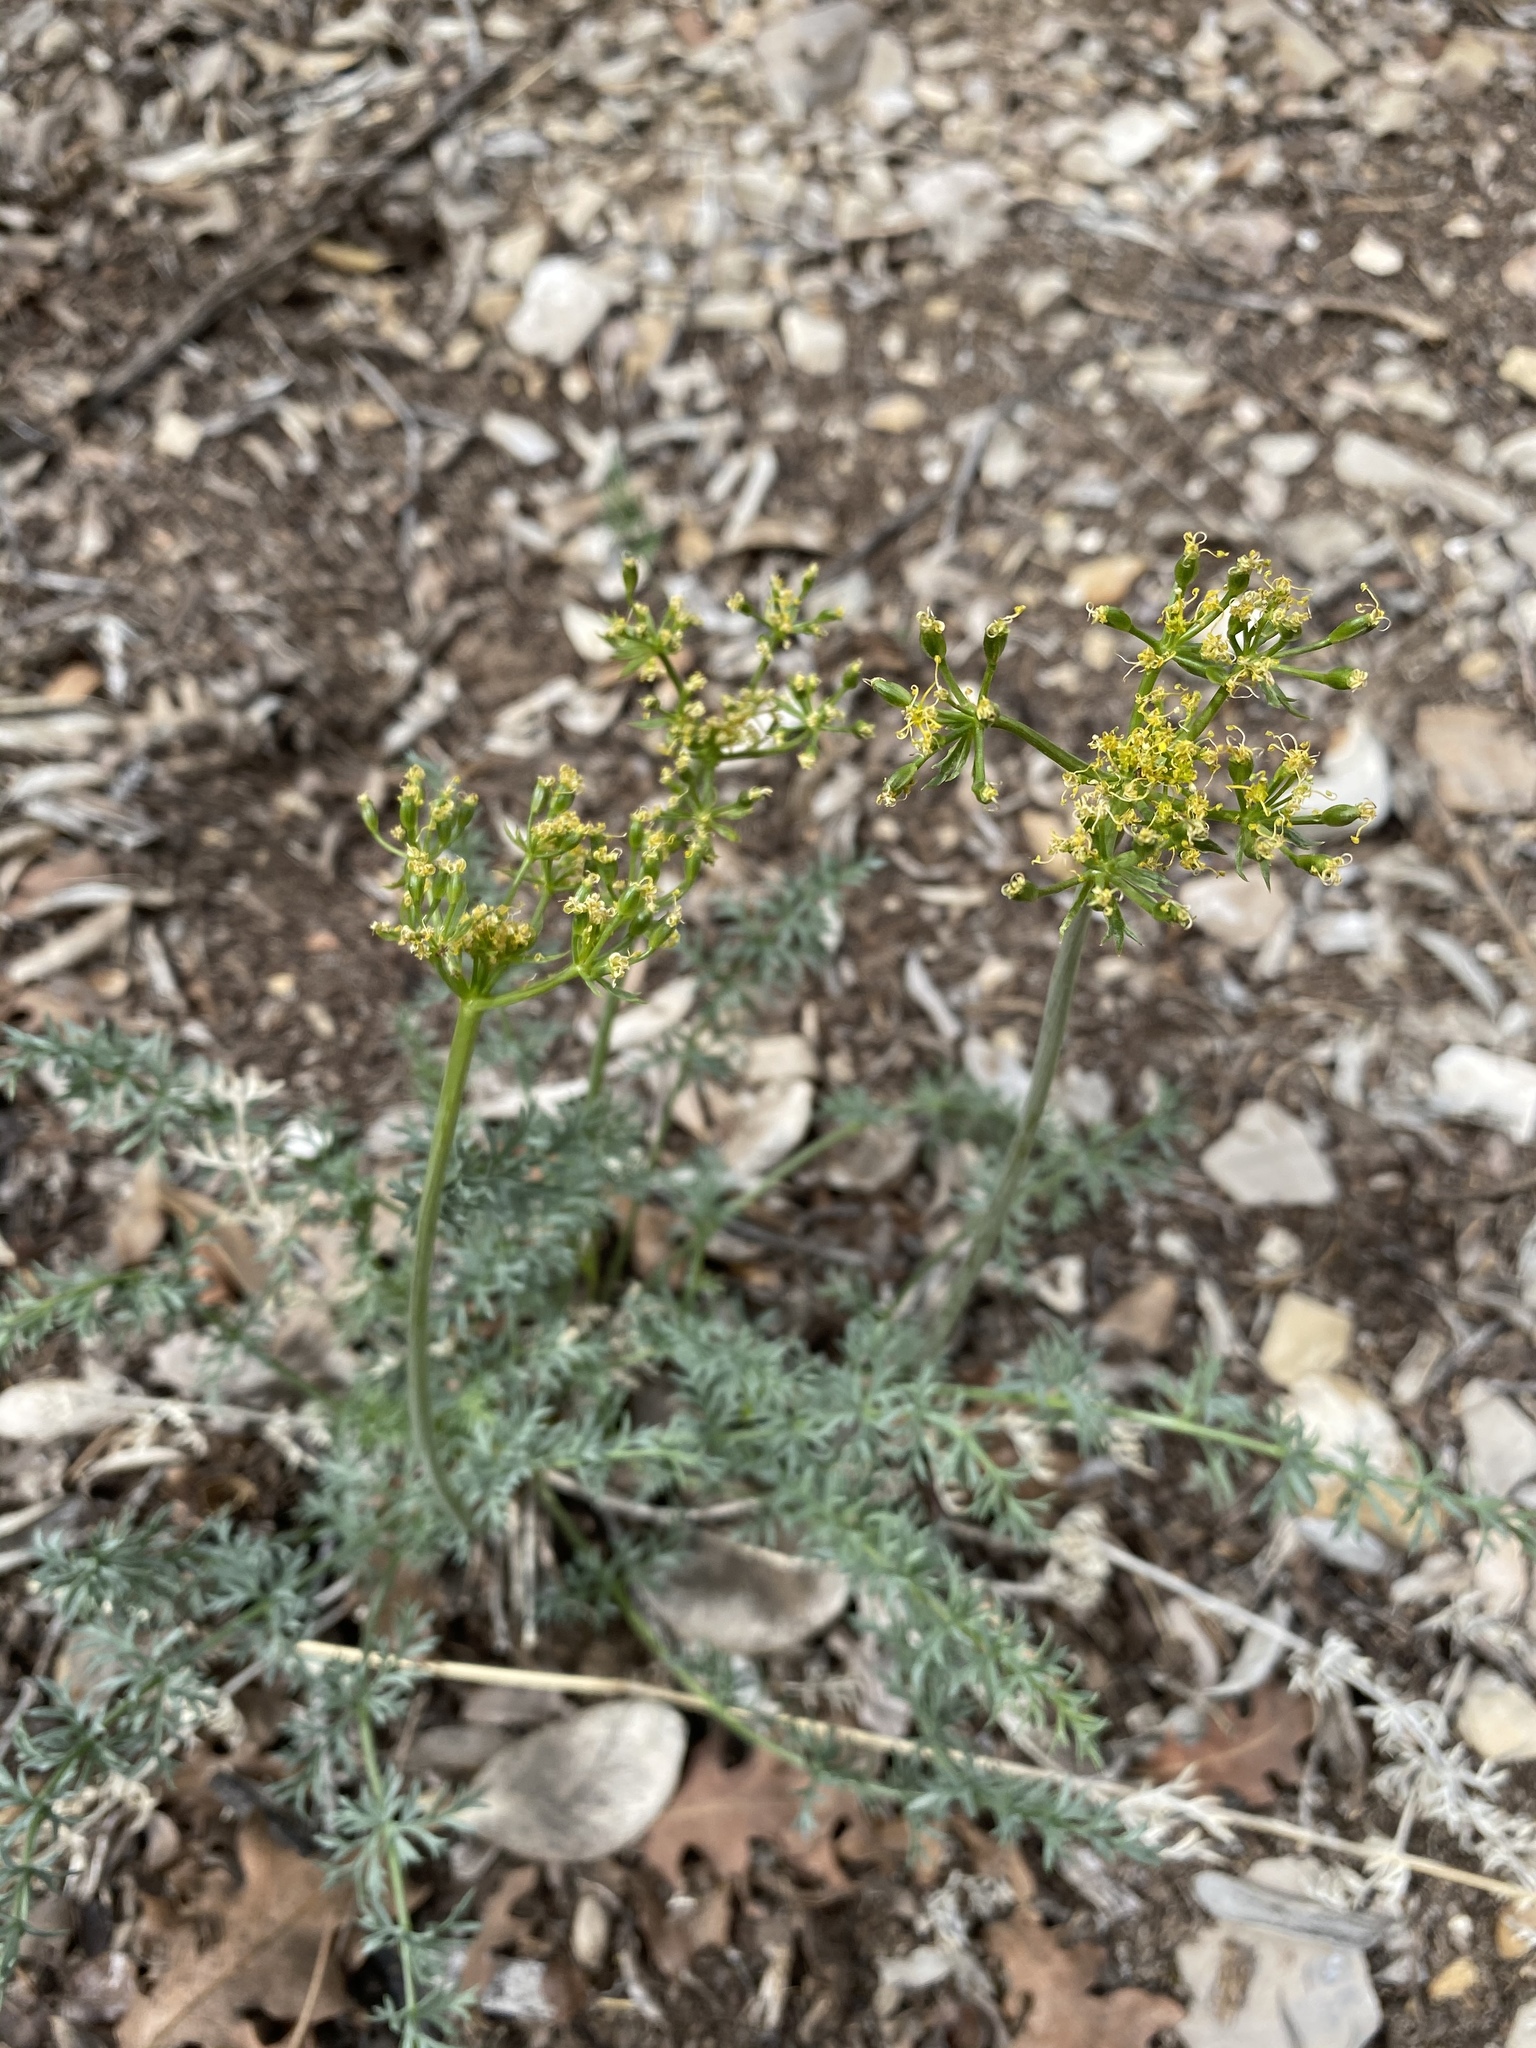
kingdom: Plantae
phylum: Tracheophyta
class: Magnoliopsida
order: Apiales
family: Apiaceae
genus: Lomatium
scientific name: Lomatium parryi
